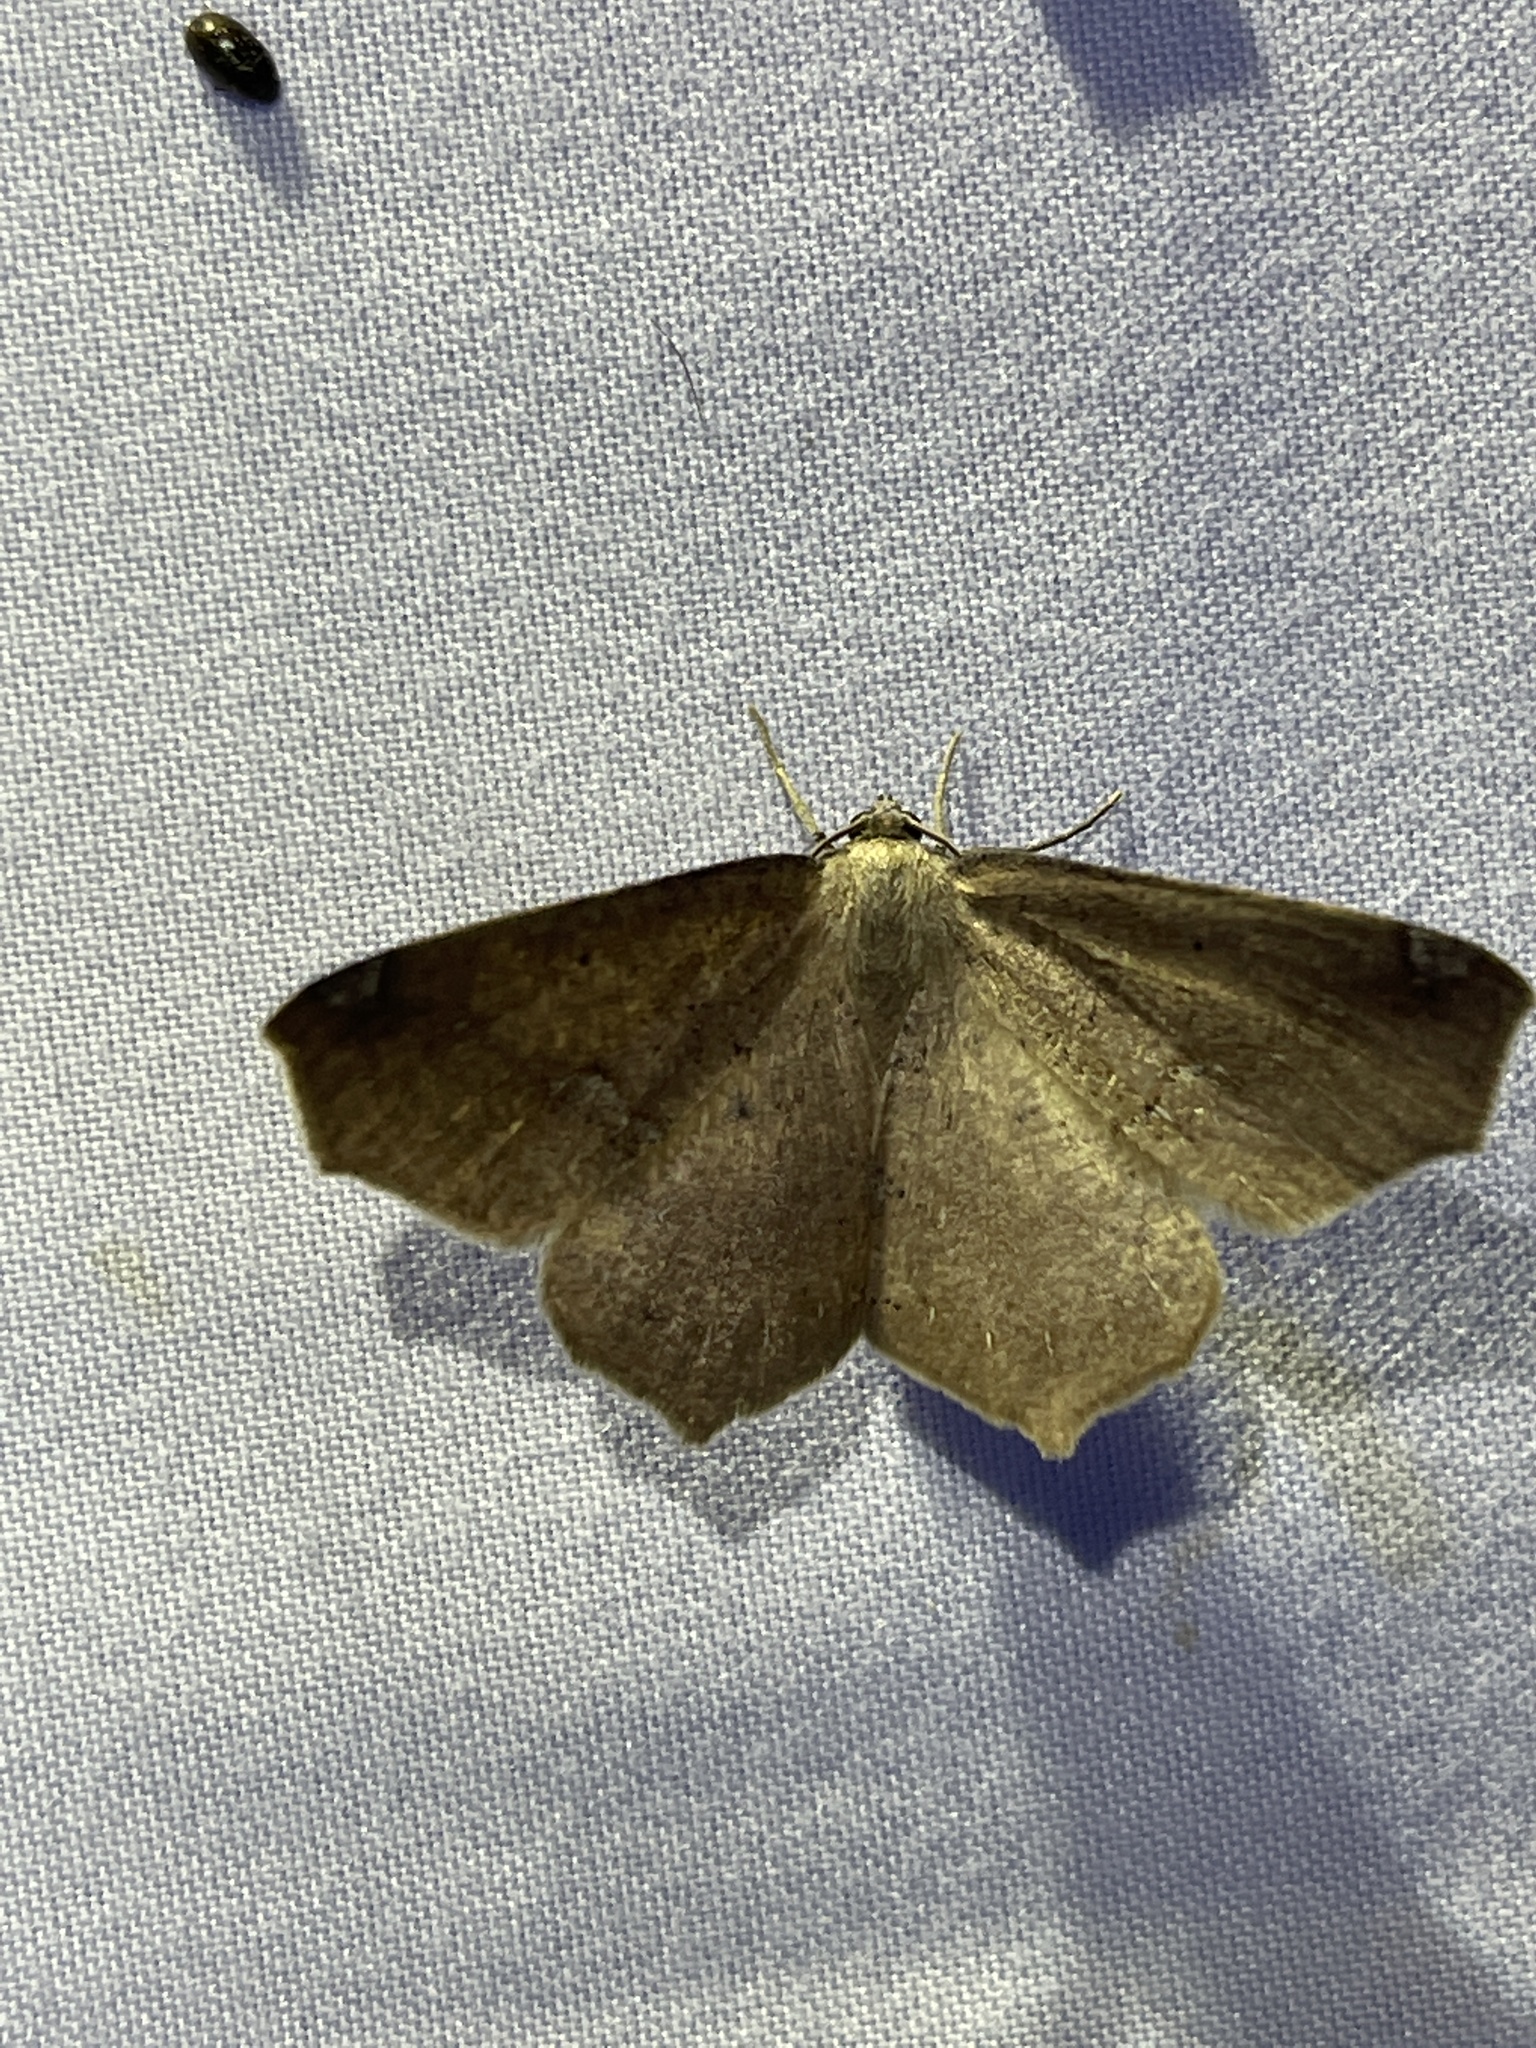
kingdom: Animalia
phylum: Arthropoda
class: Insecta
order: Lepidoptera
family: Geometridae
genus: Antepione
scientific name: Antepione thisoaria
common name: Variable antipione
